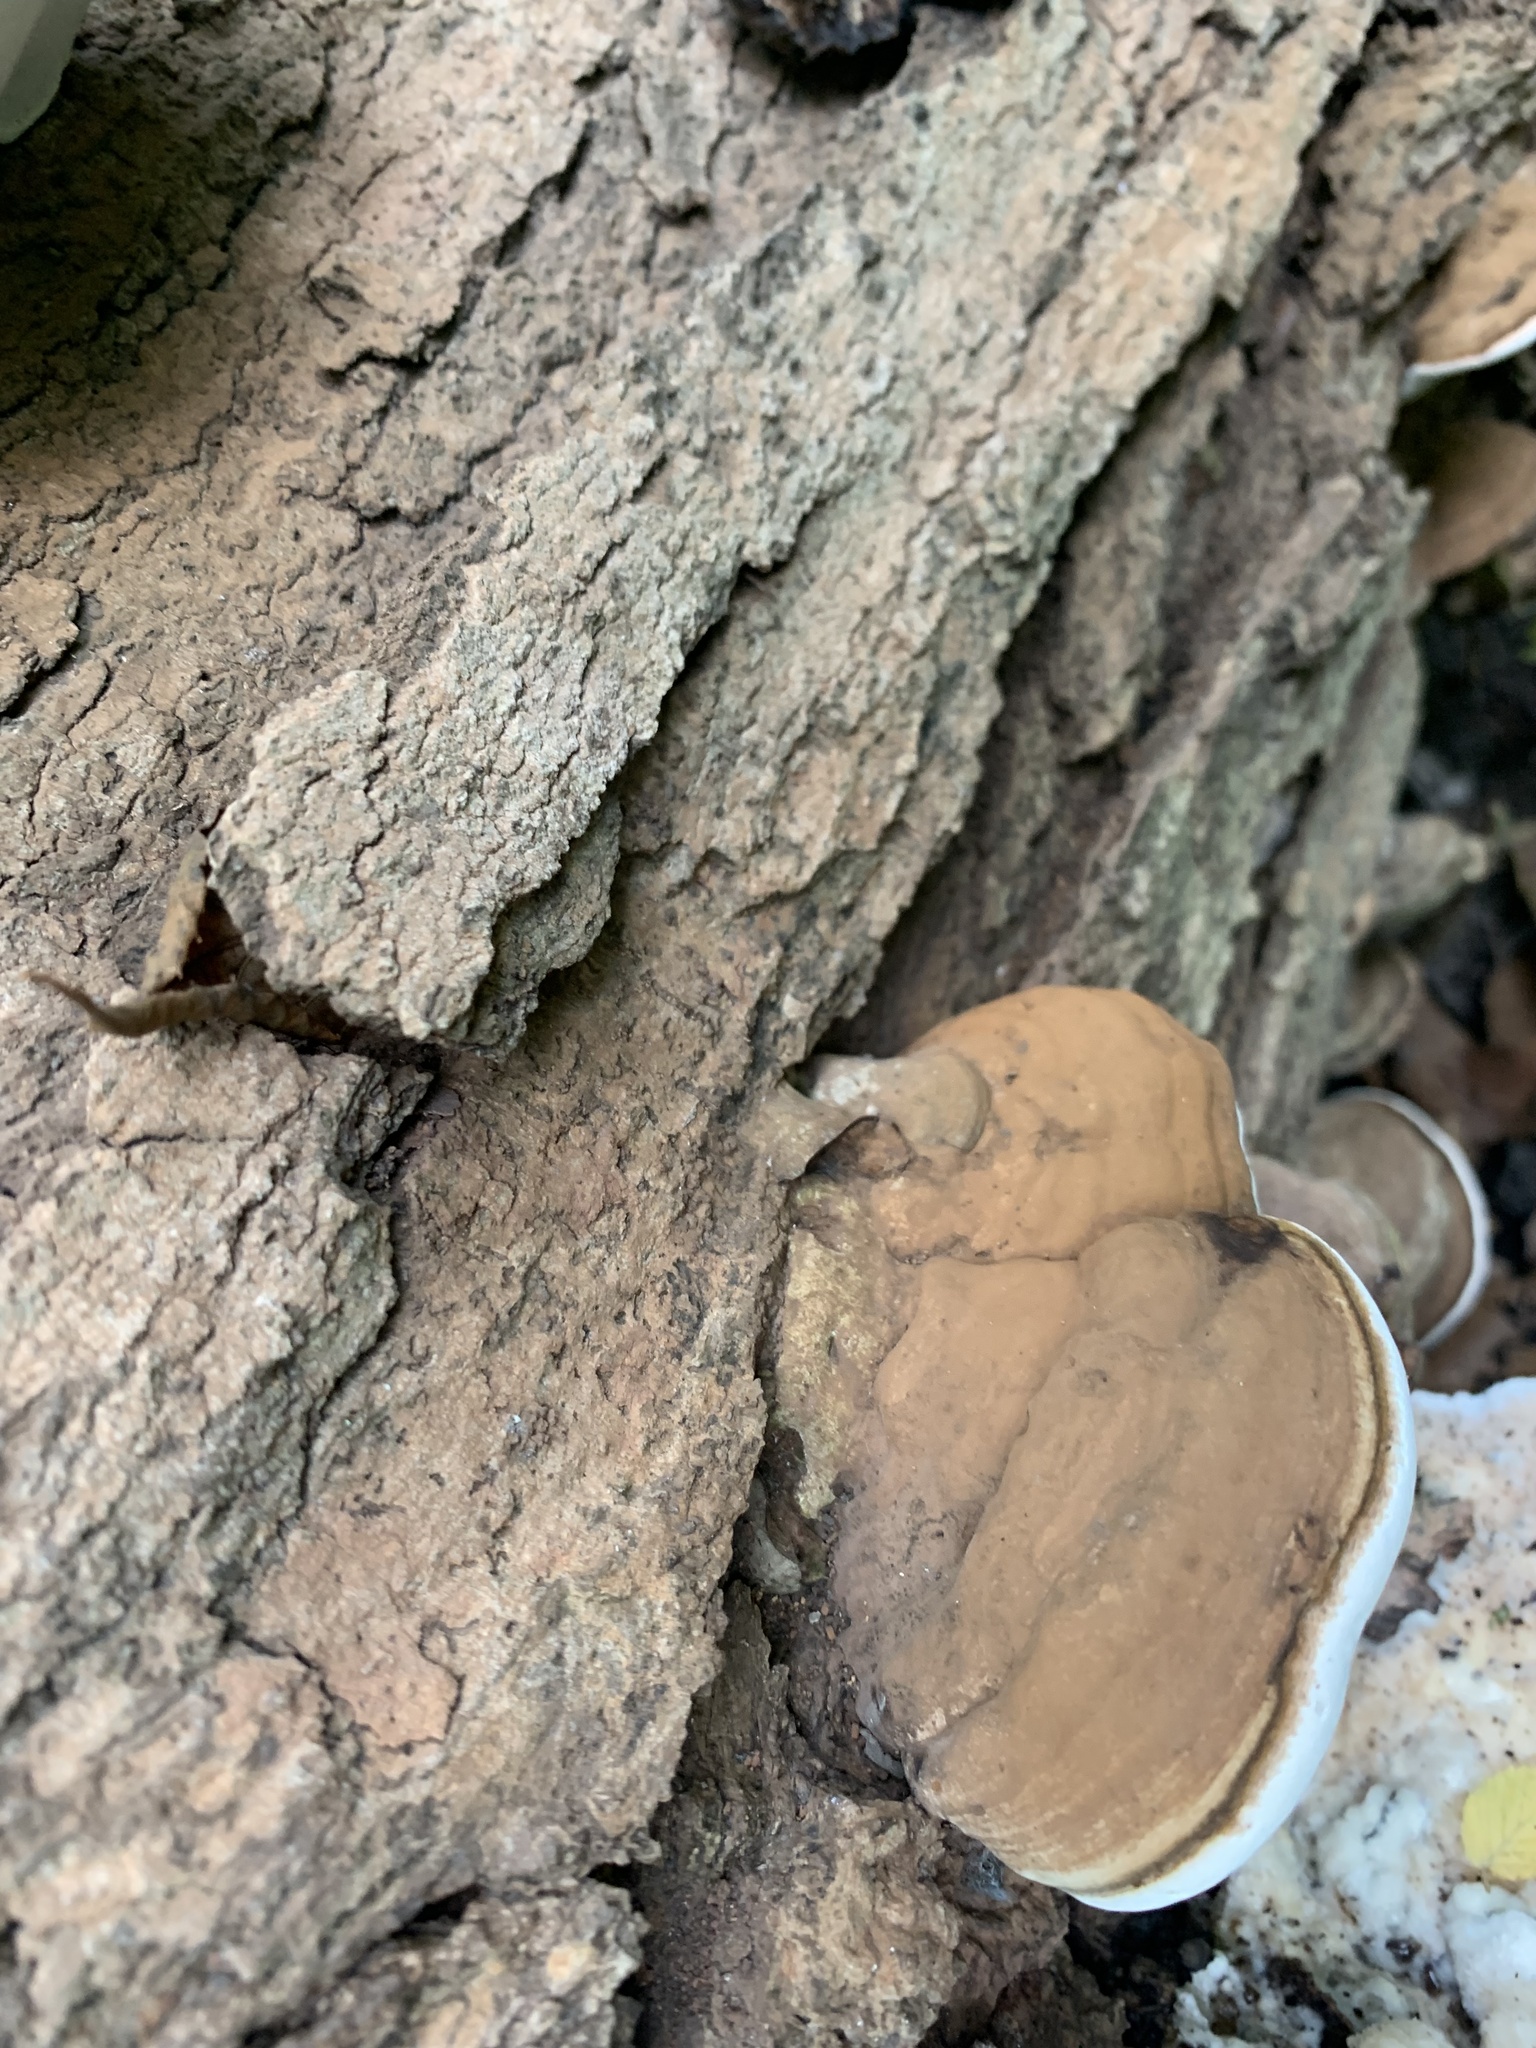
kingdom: Fungi
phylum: Basidiomycota
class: Agaricomycetes
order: Polyporales
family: Polyporaceae
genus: Ganoderma
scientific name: Ganoderma applanatum
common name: Artist's bracket
